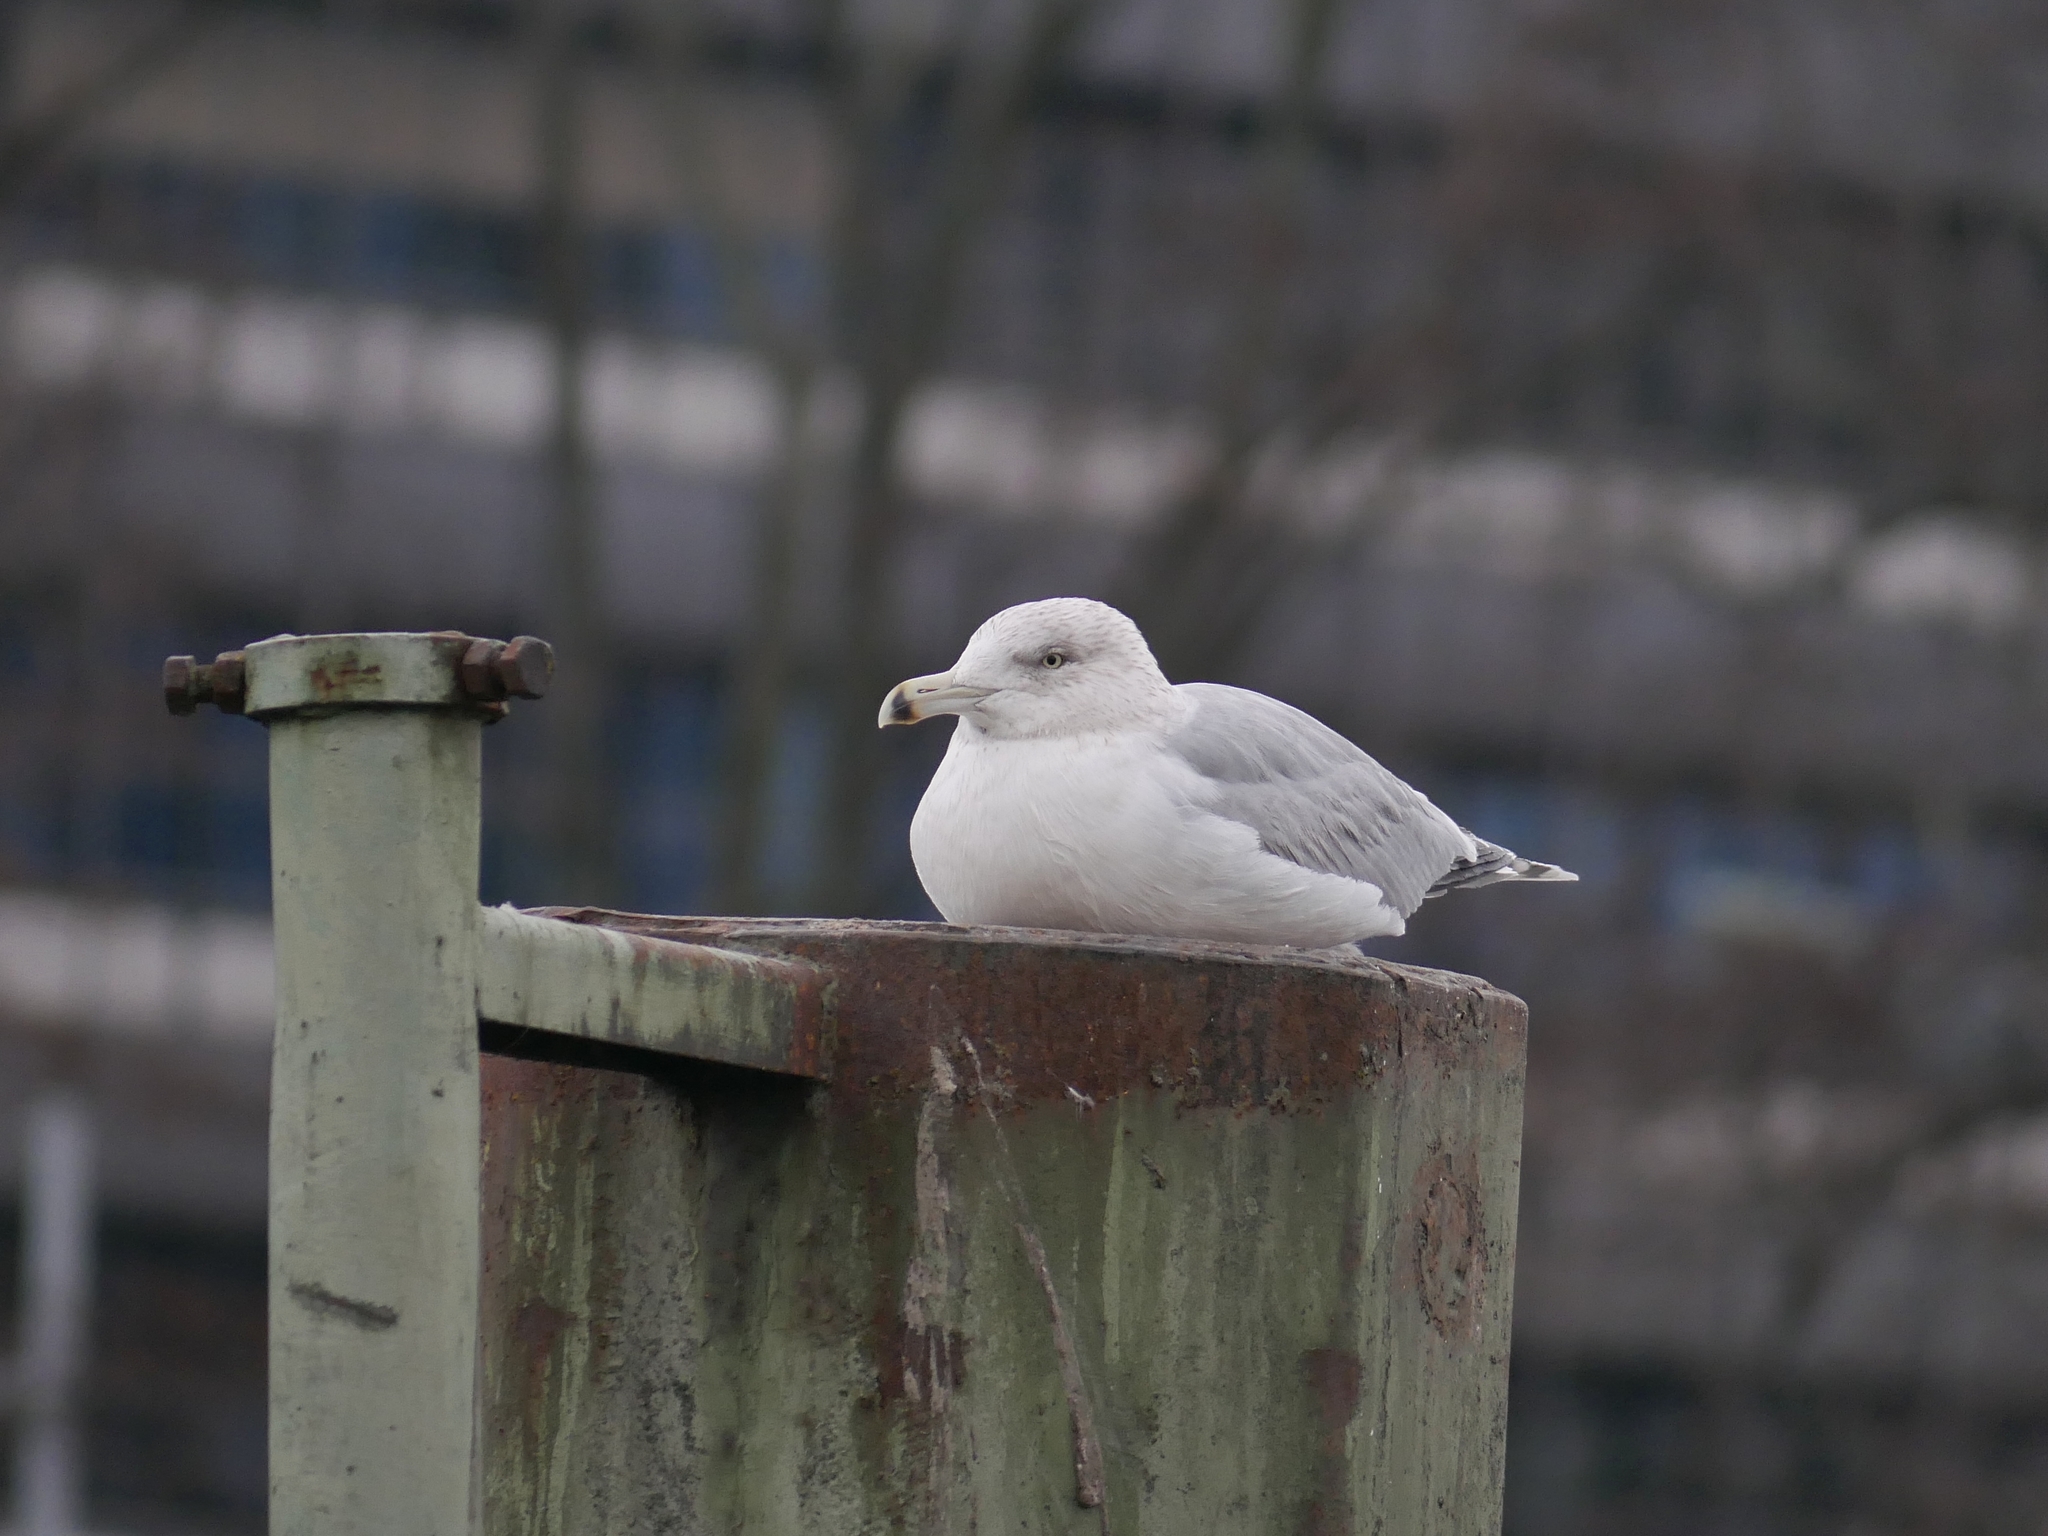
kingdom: Animalia
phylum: Chordata
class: Aves
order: Charadriiformes
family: Laridae
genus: Larus
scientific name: Larus argentatus
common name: Herring gull
